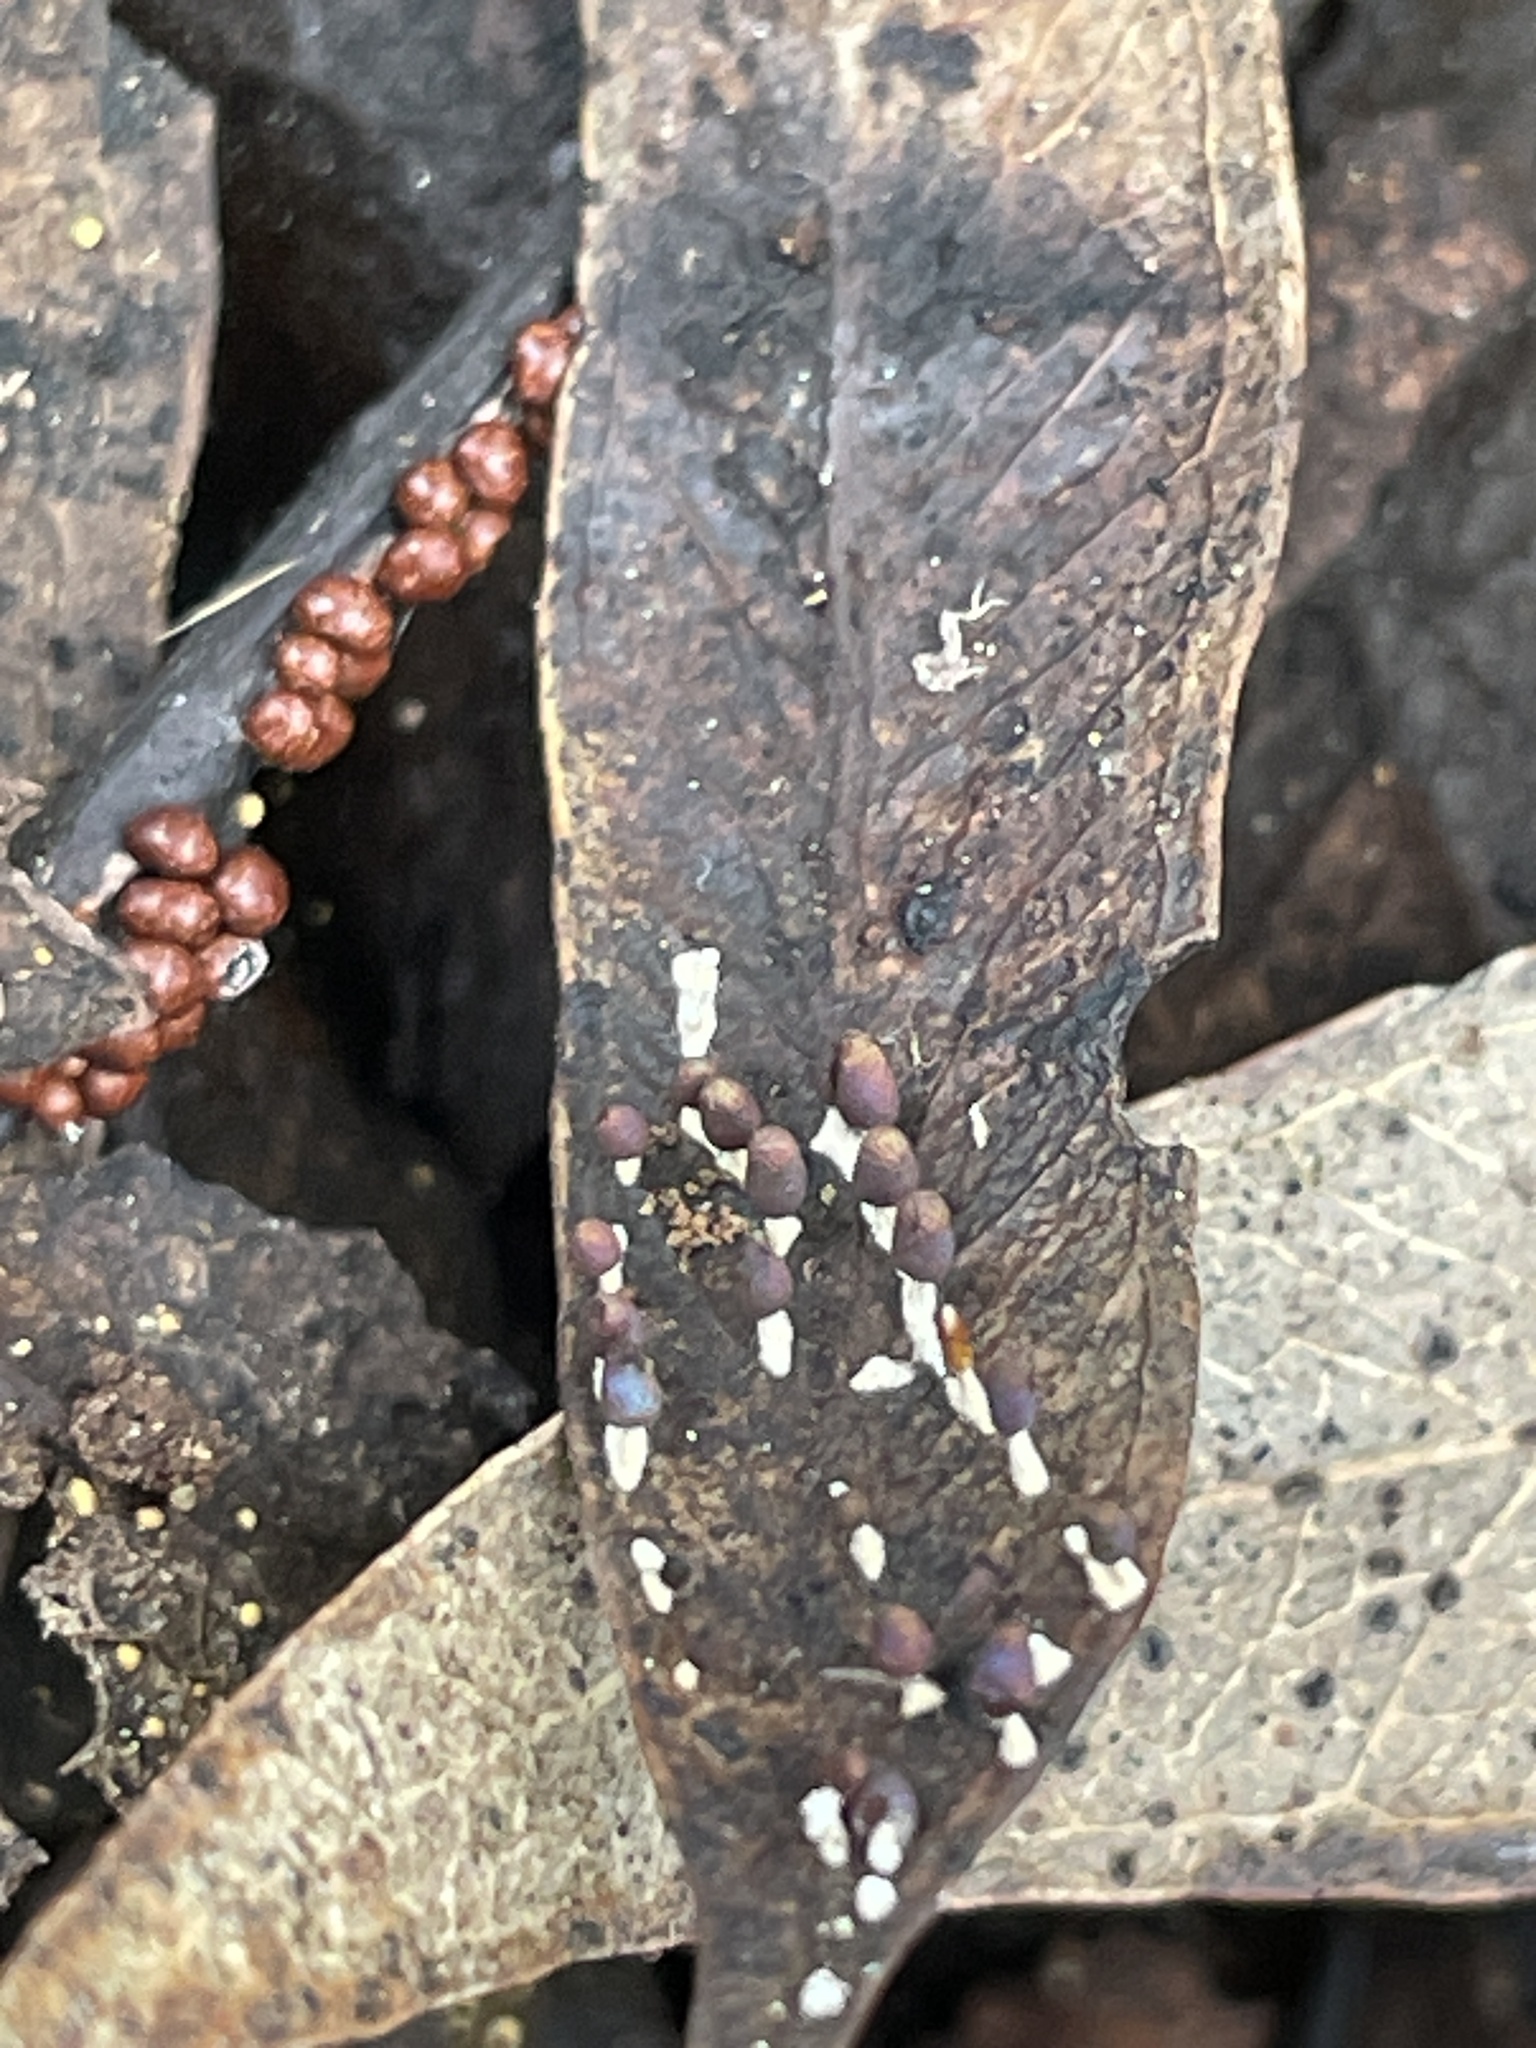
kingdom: Protozoa
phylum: Mycetozoa
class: Myxomycetes
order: Physarales
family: Didymiaceae
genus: Diderma
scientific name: Diderma subincarnatum
